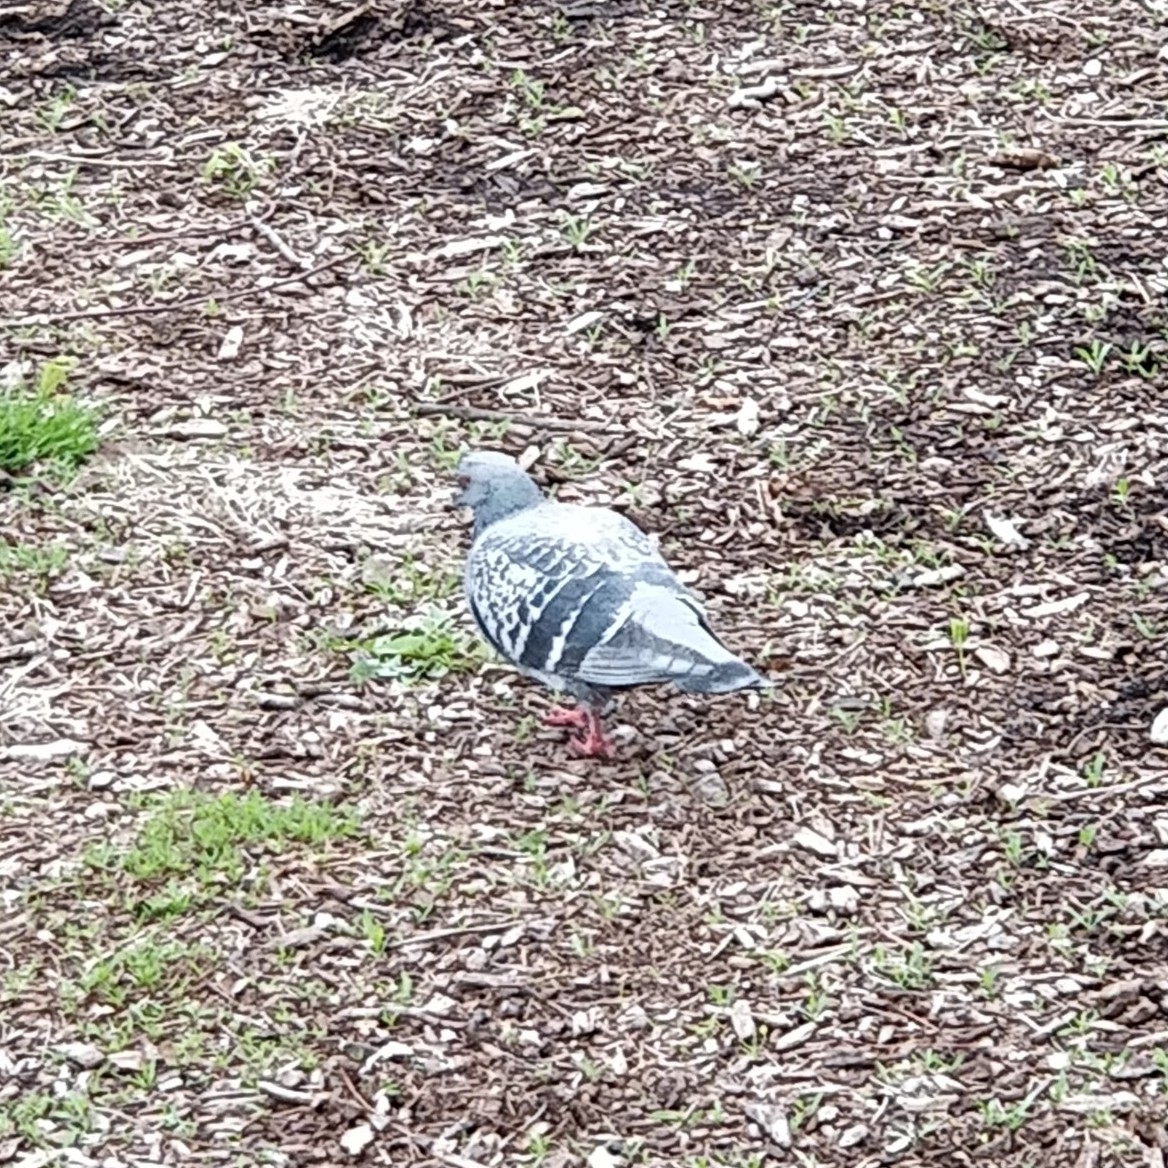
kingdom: Animalia
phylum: Chordata
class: Aves
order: Columbiformes
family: Columbidae
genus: Columba
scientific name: Columba livia
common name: Rock pigeon
